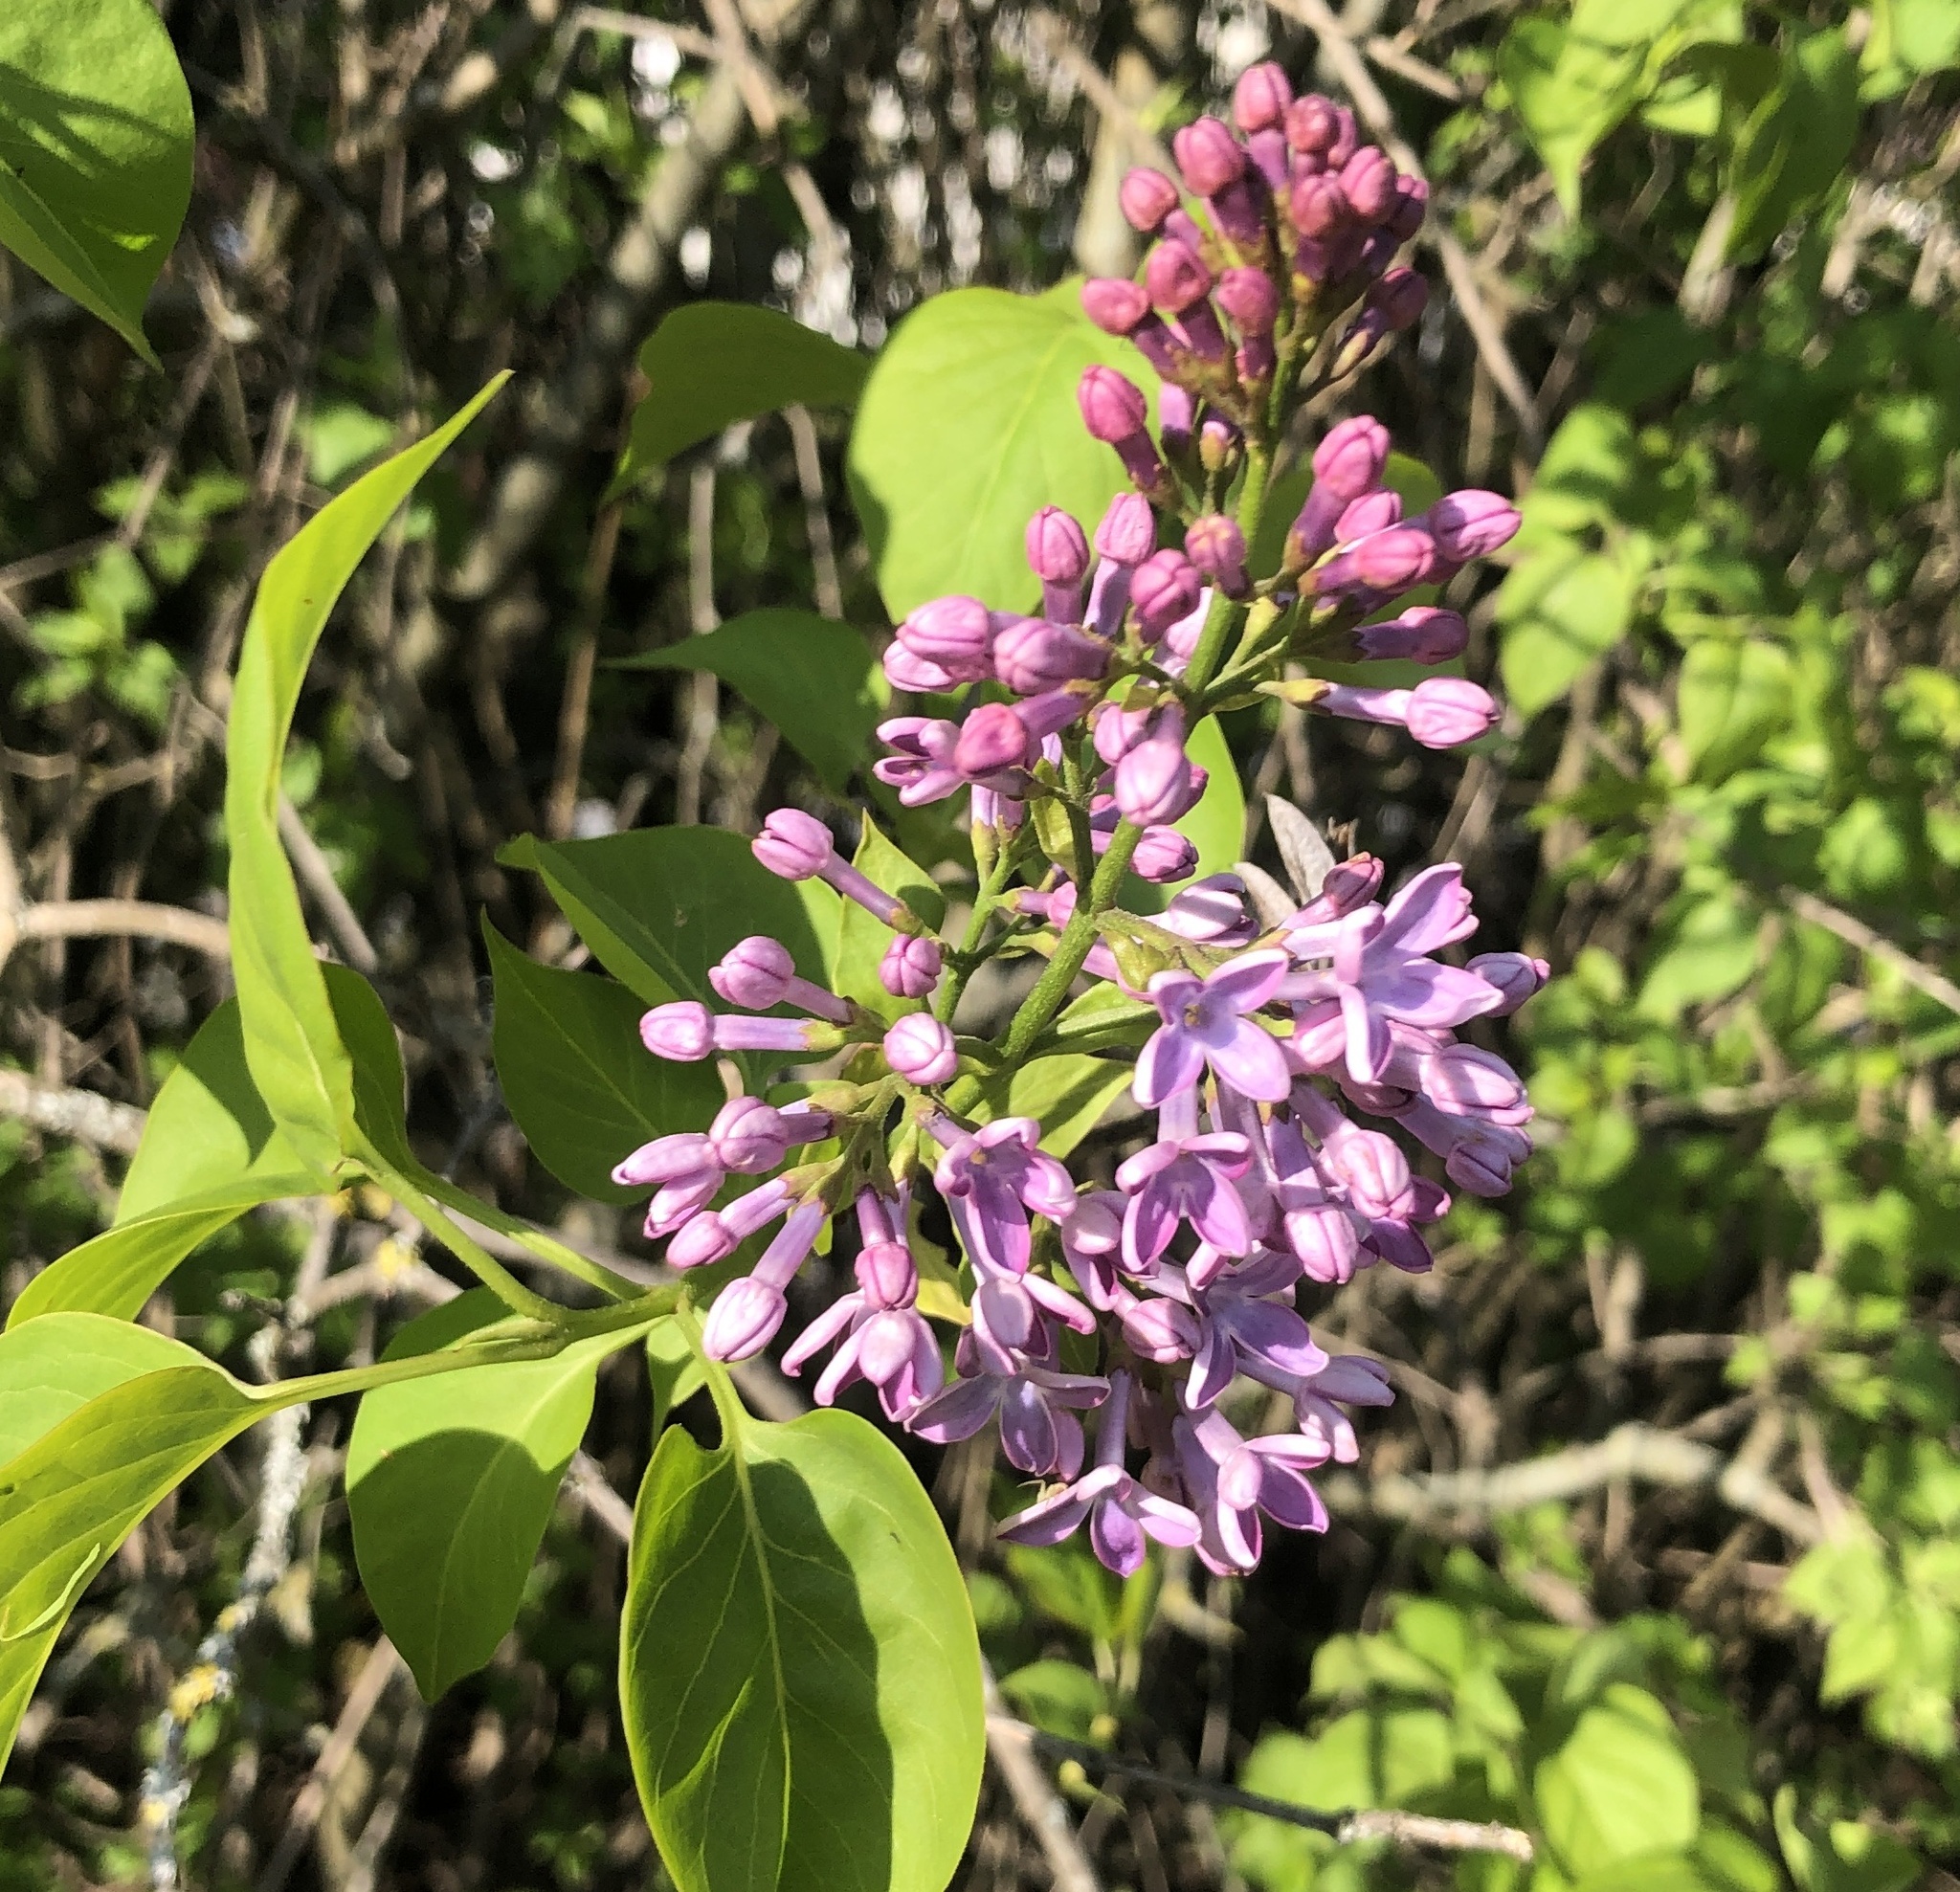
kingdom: Plantae
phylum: Tracheophyta
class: Magnoliopsida
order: Lamiales
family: Oleaceae
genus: Syringa
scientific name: Syringa vulgaris
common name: Common lilac
